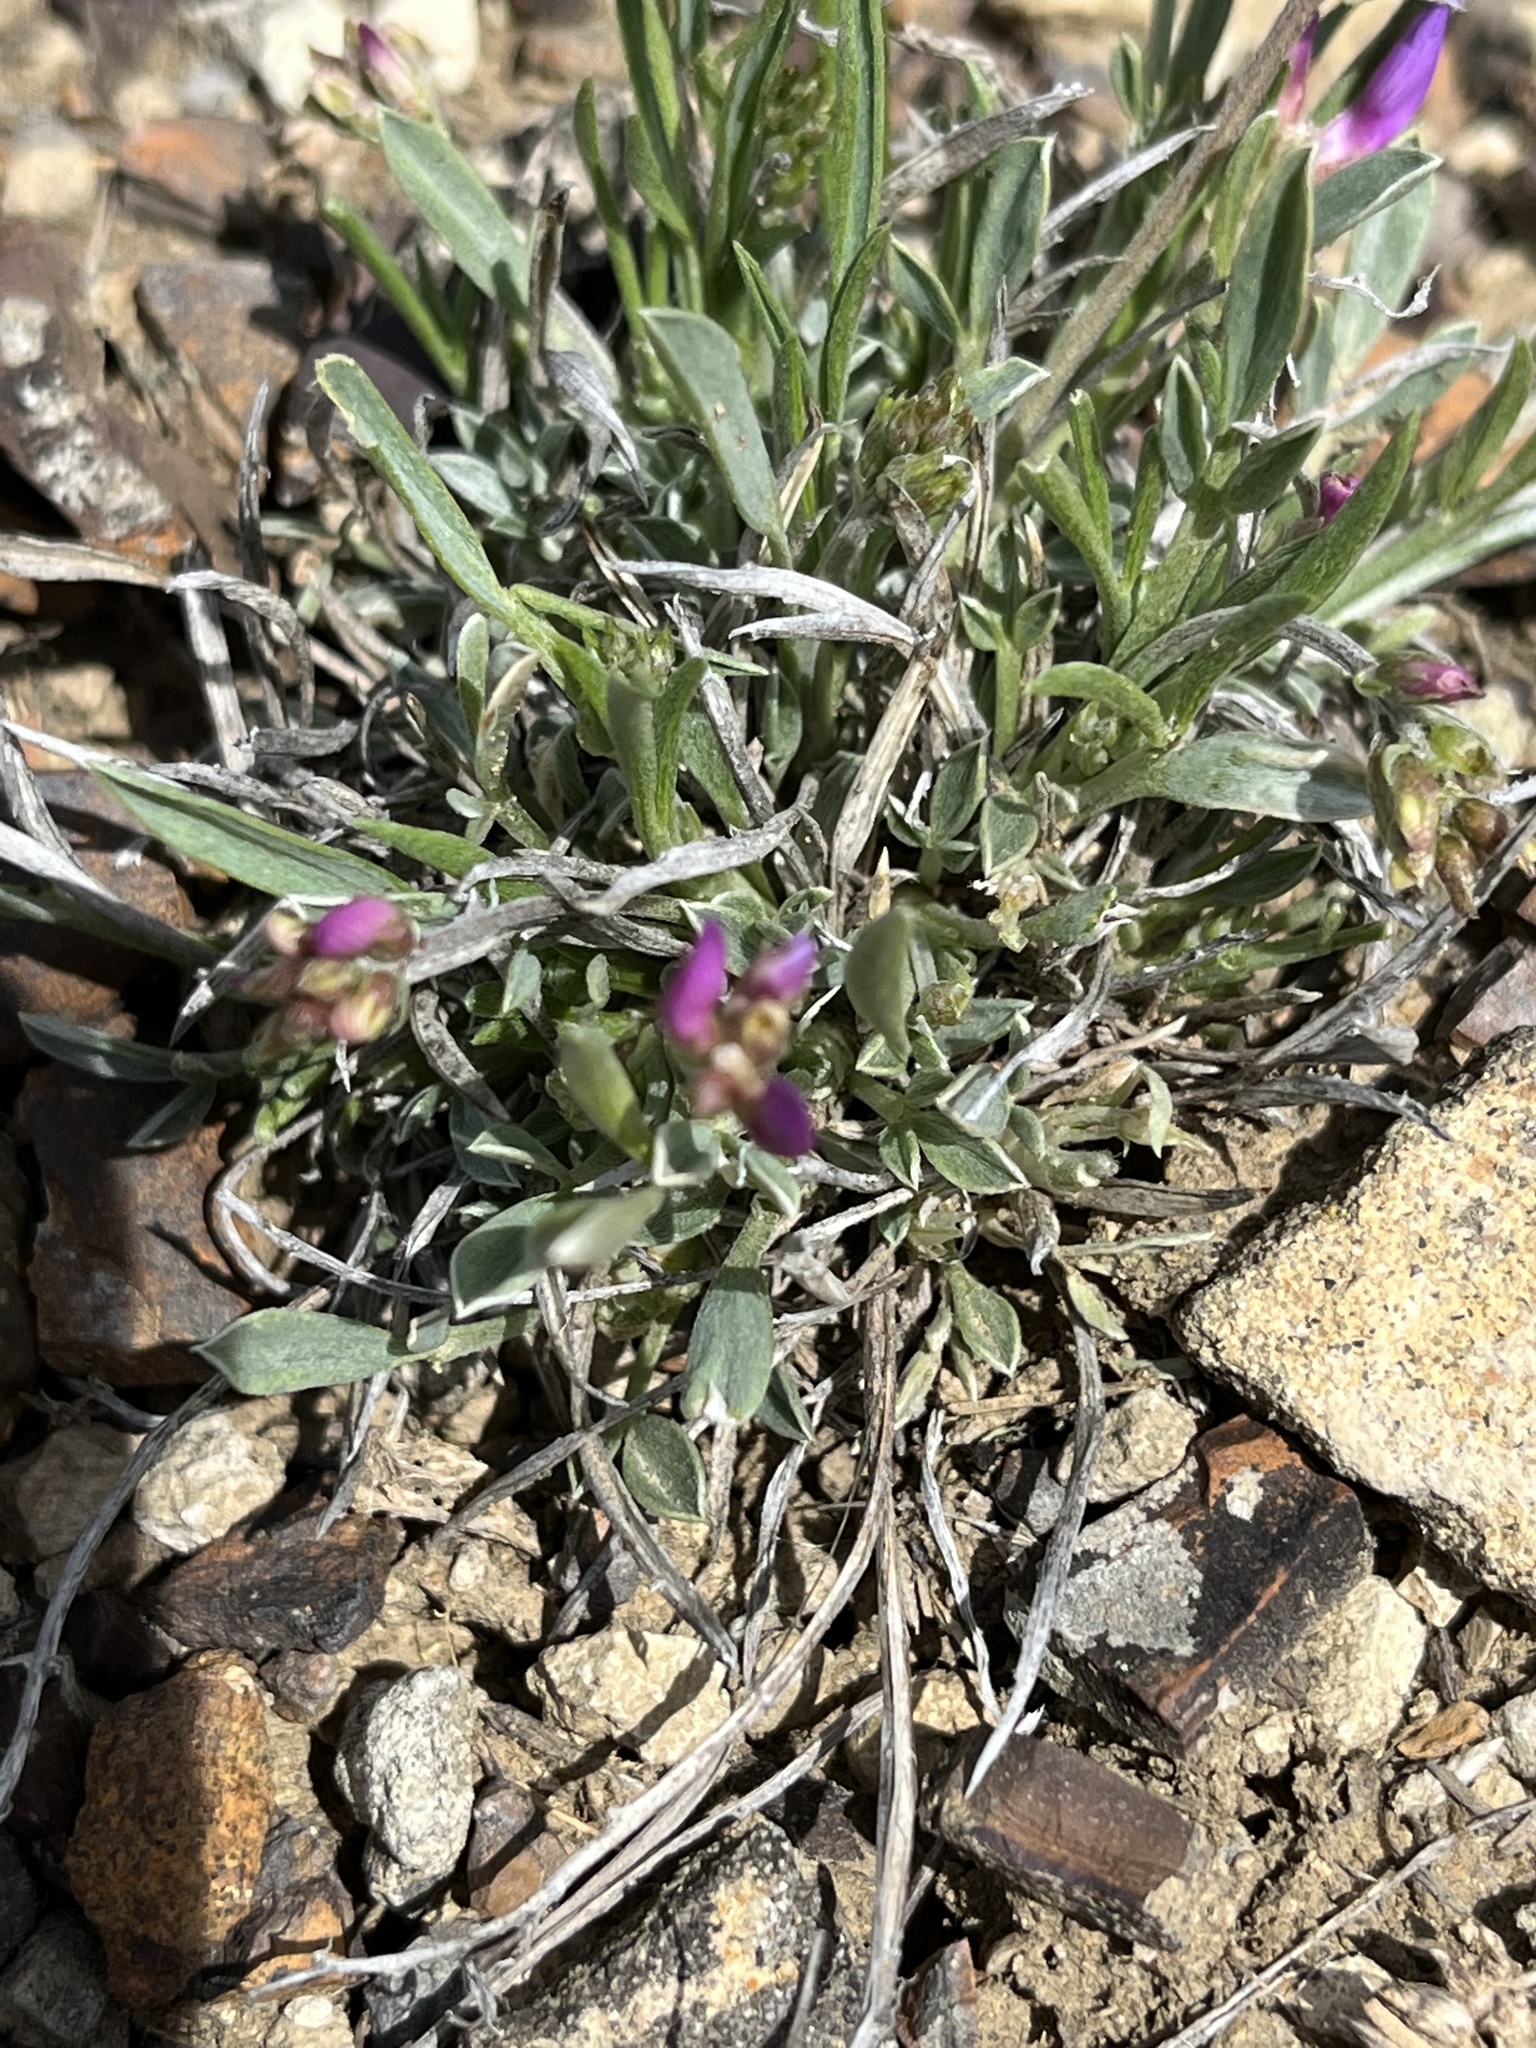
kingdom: Plantae
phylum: Tracheophyta
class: Magnoliopsida
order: Fabales
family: Fabaceae
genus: Astragalus
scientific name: Astragalus spatulatus
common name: Draba milk-vetch
